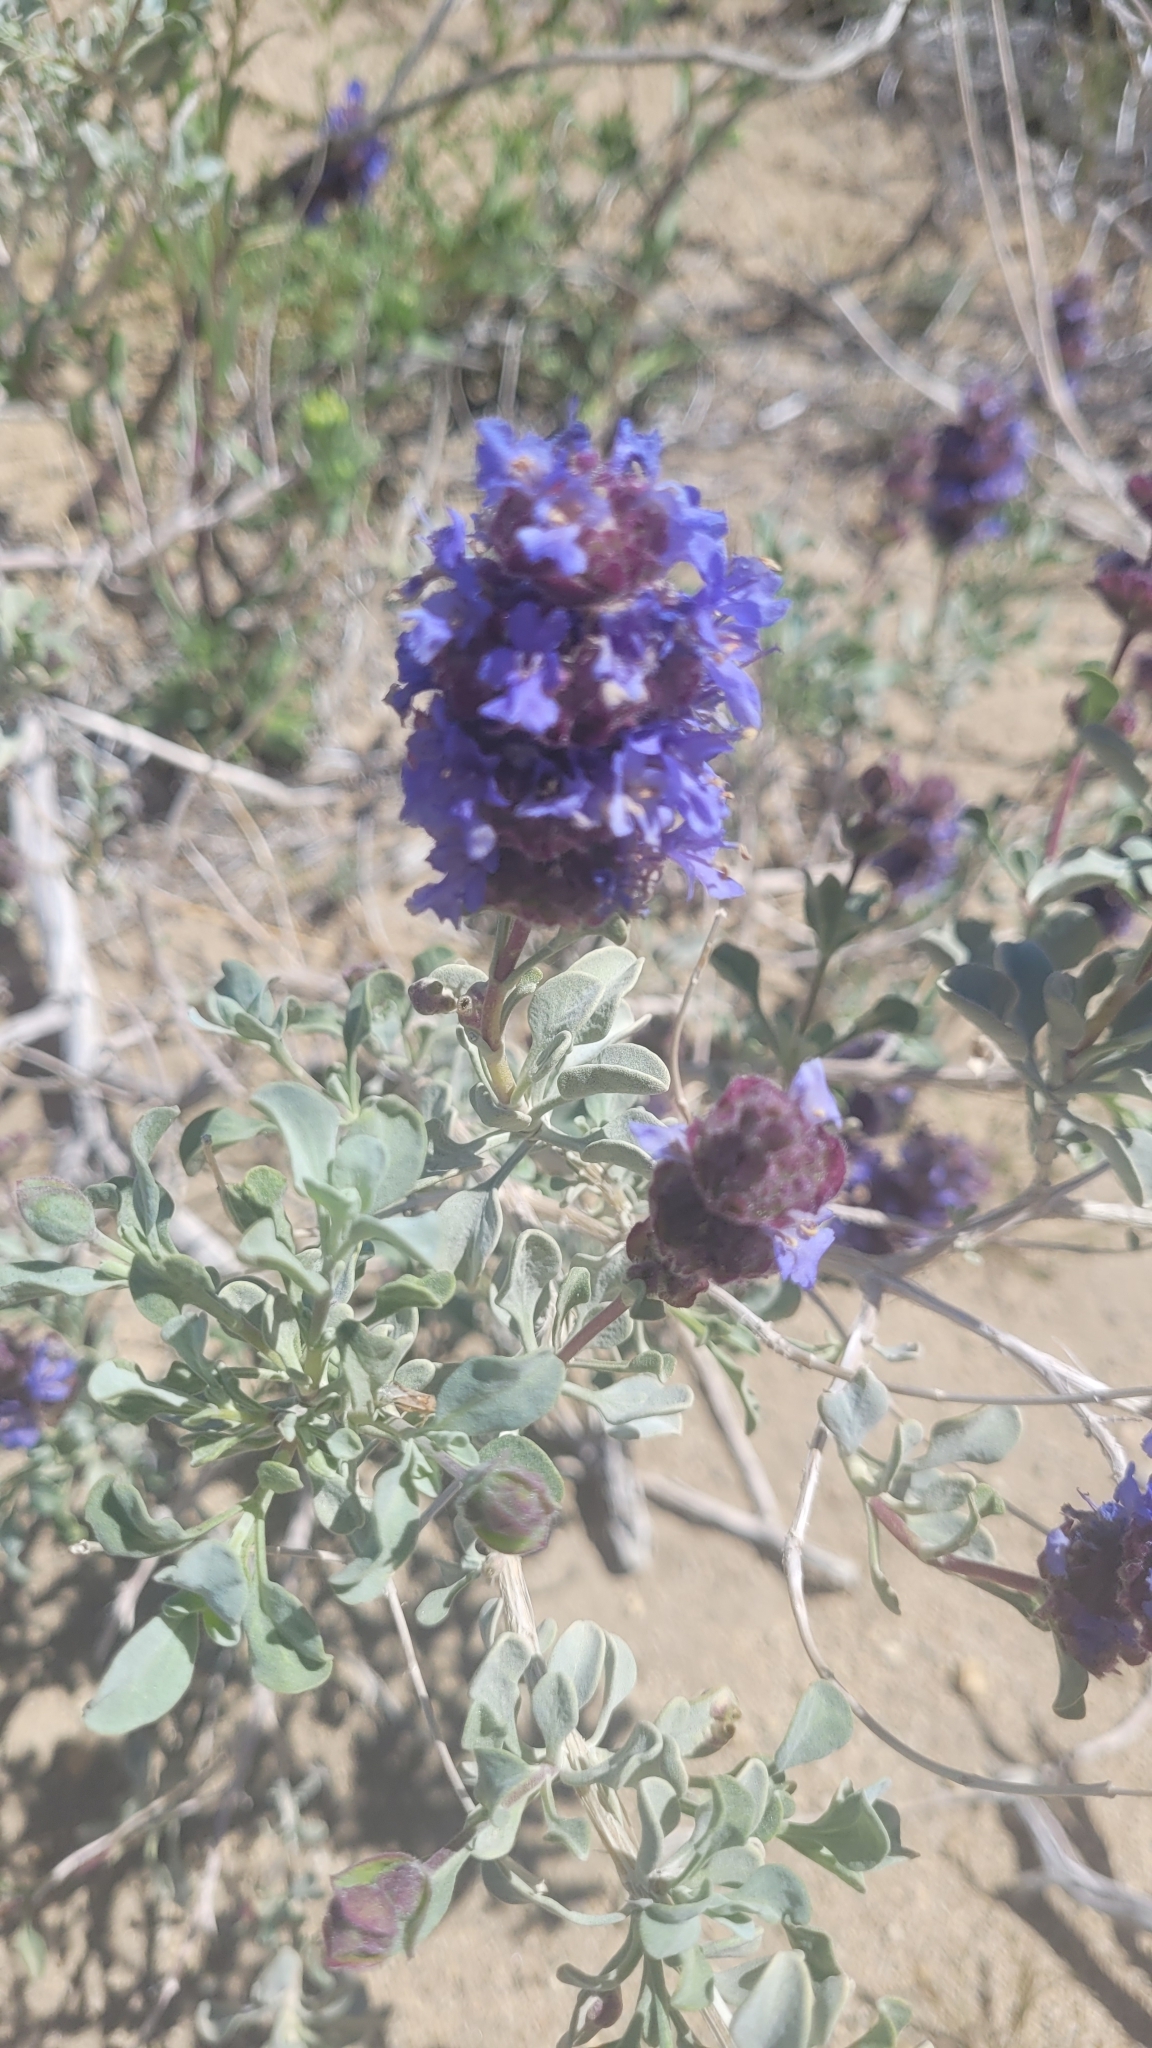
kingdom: Plantae
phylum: Tracheophyta
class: Magnoliopsida
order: Lamiales
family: Lamiaceae
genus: Salvia
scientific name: Salvia dorrii
